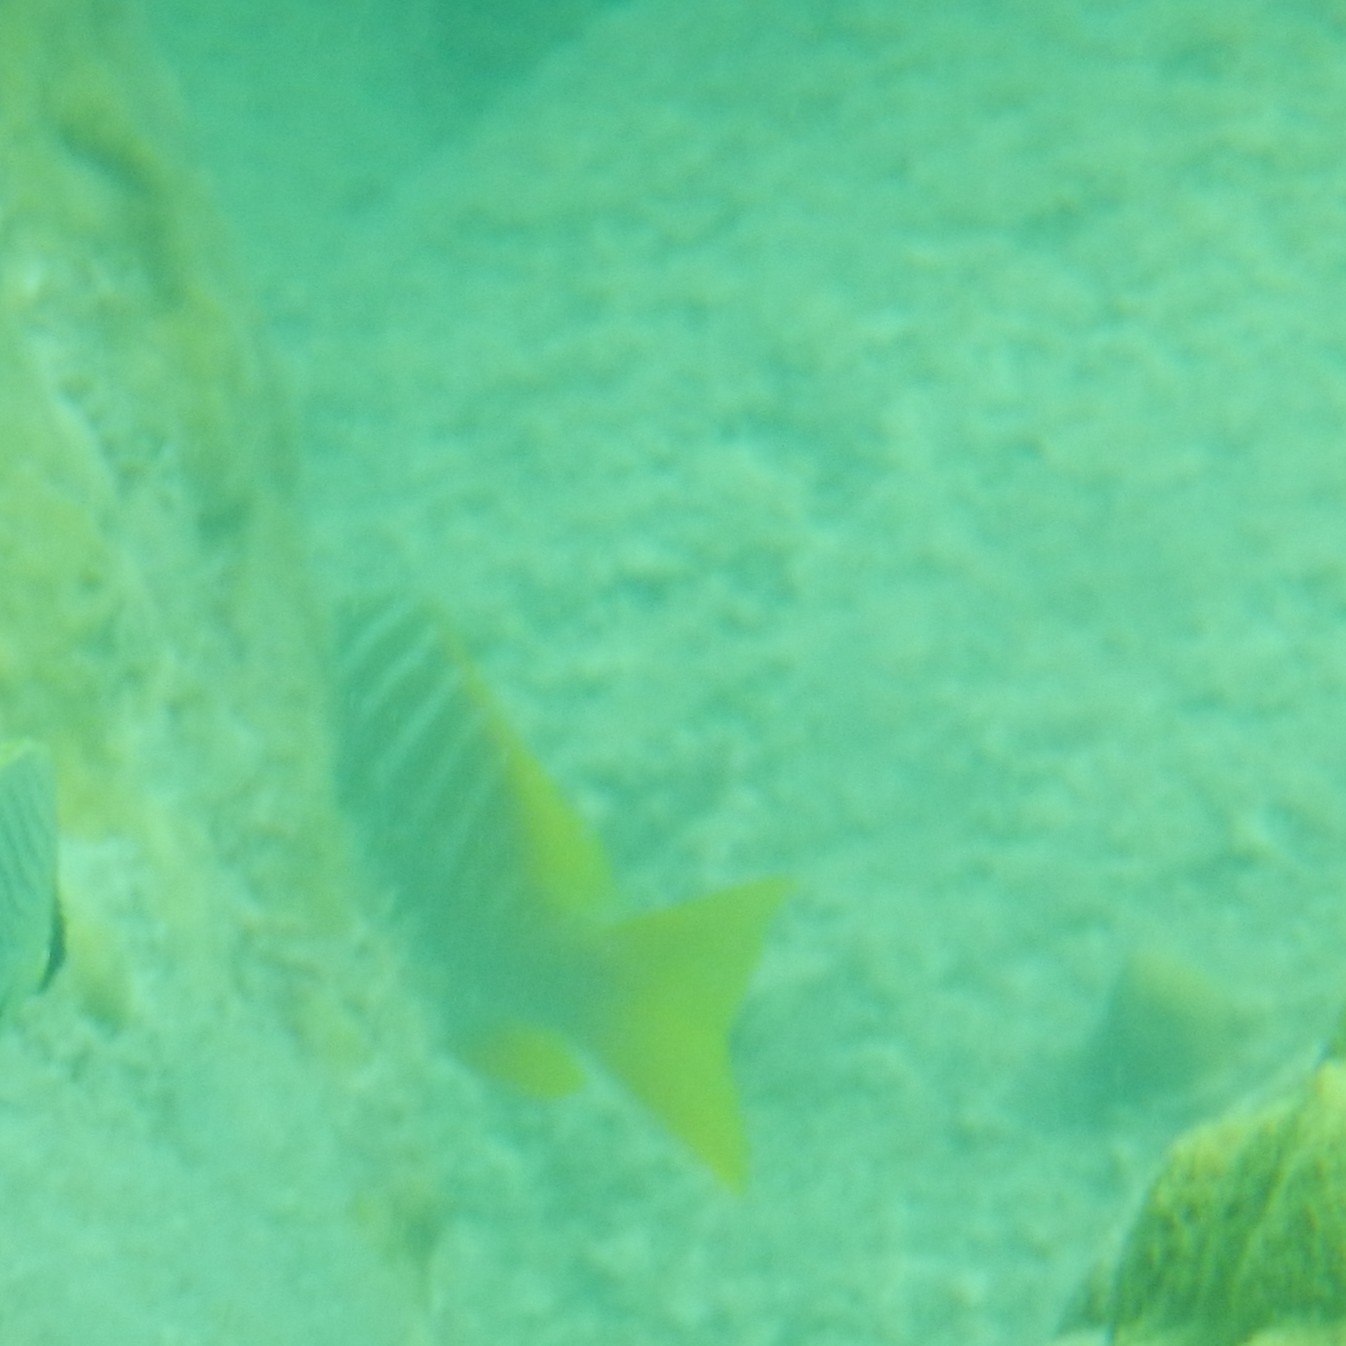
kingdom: Animalia
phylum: Chordata
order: Perciformes
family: Lutjanidae
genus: Lutjanus
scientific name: Lutjanus apodus
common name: Schoolmaster
